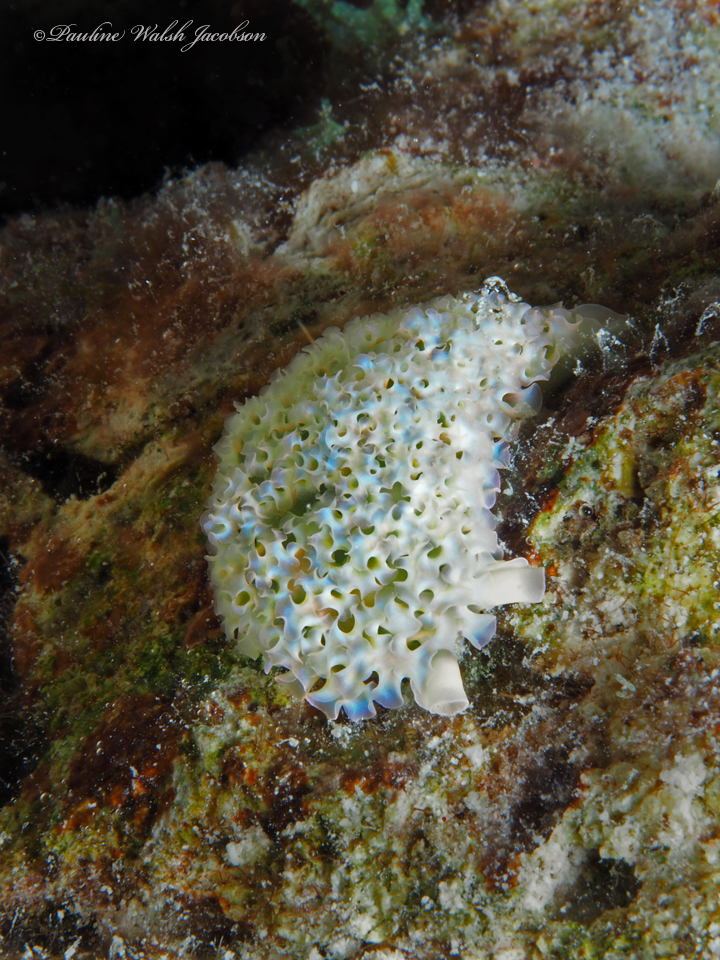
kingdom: Animalia
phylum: Mollusca
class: Gastropoda
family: Plakobranchidae
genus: Elysia
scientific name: Elysia crispata
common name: Lettuce slug
